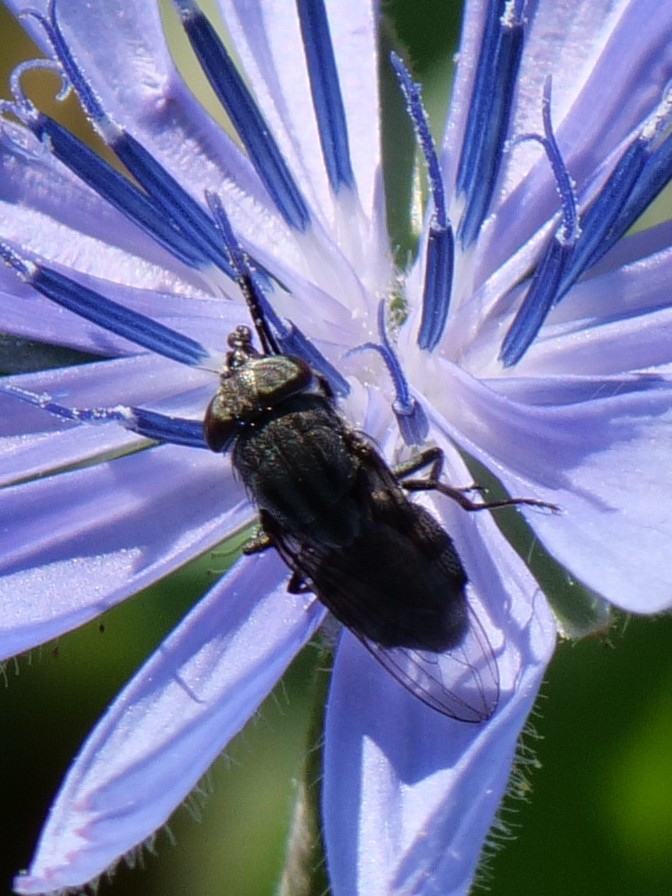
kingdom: Animalia
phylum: Arthropoda
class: Insecta
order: Diptera
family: Calliphoridae
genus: Stomorhina
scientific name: Stomorhina lunata
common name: Locust blowfly
